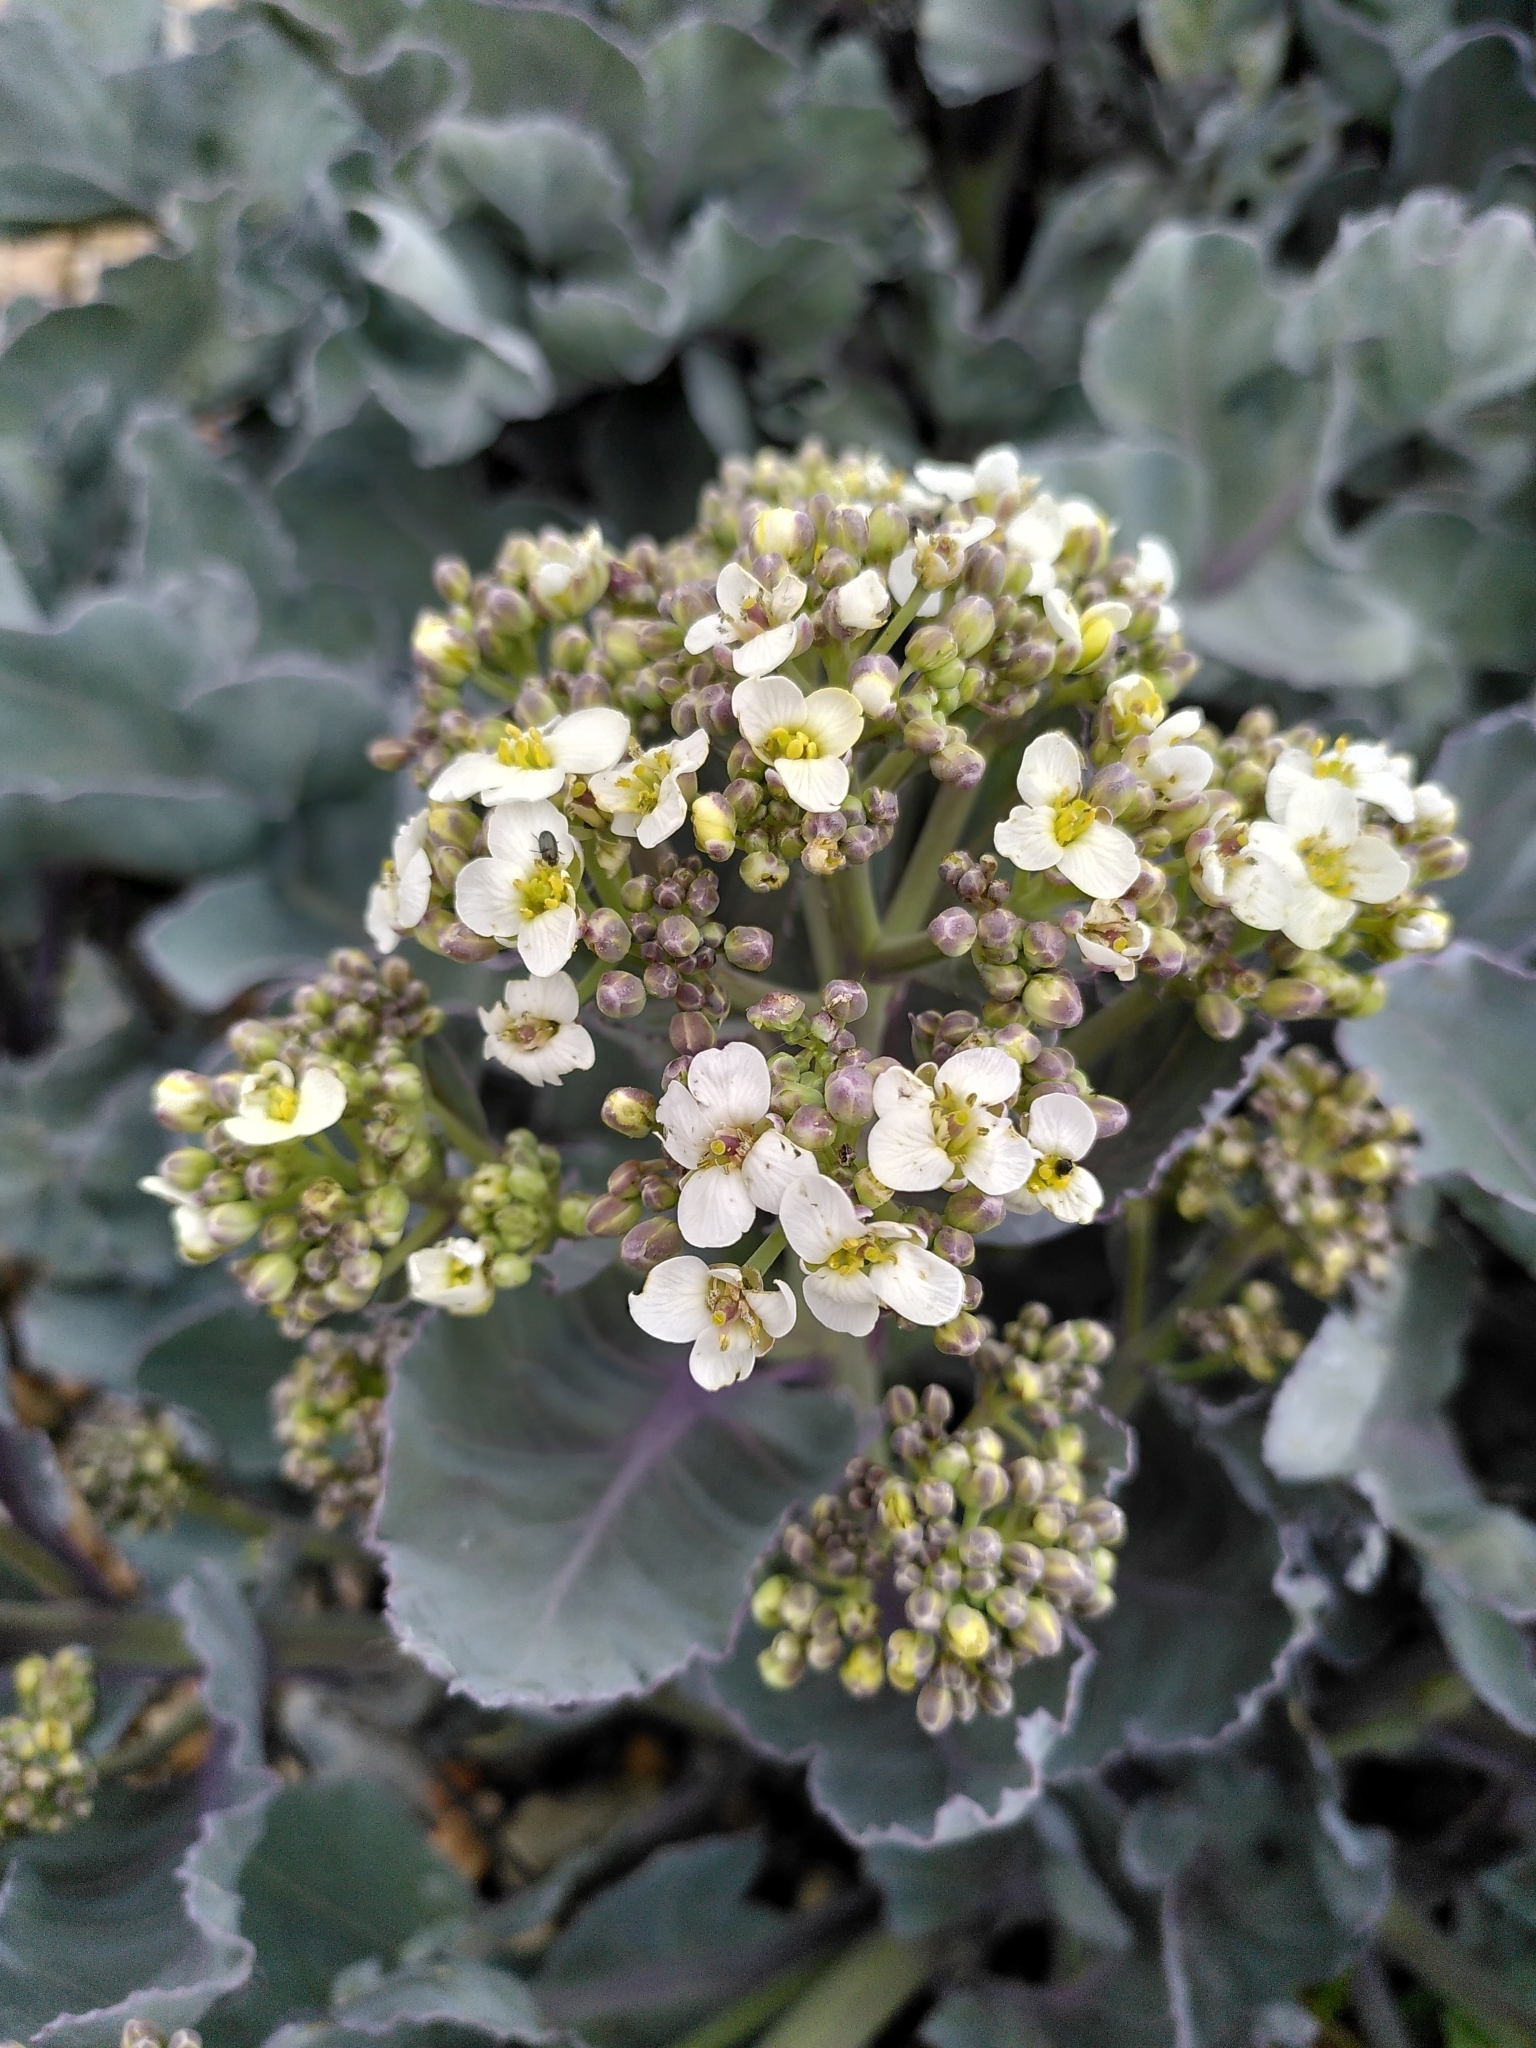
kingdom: Plantae
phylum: Tracheophyta
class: Magnoliopsida
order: Brassicales
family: Brassicaceae
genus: Crambe
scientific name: Crambe maritima
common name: Sea-kale
